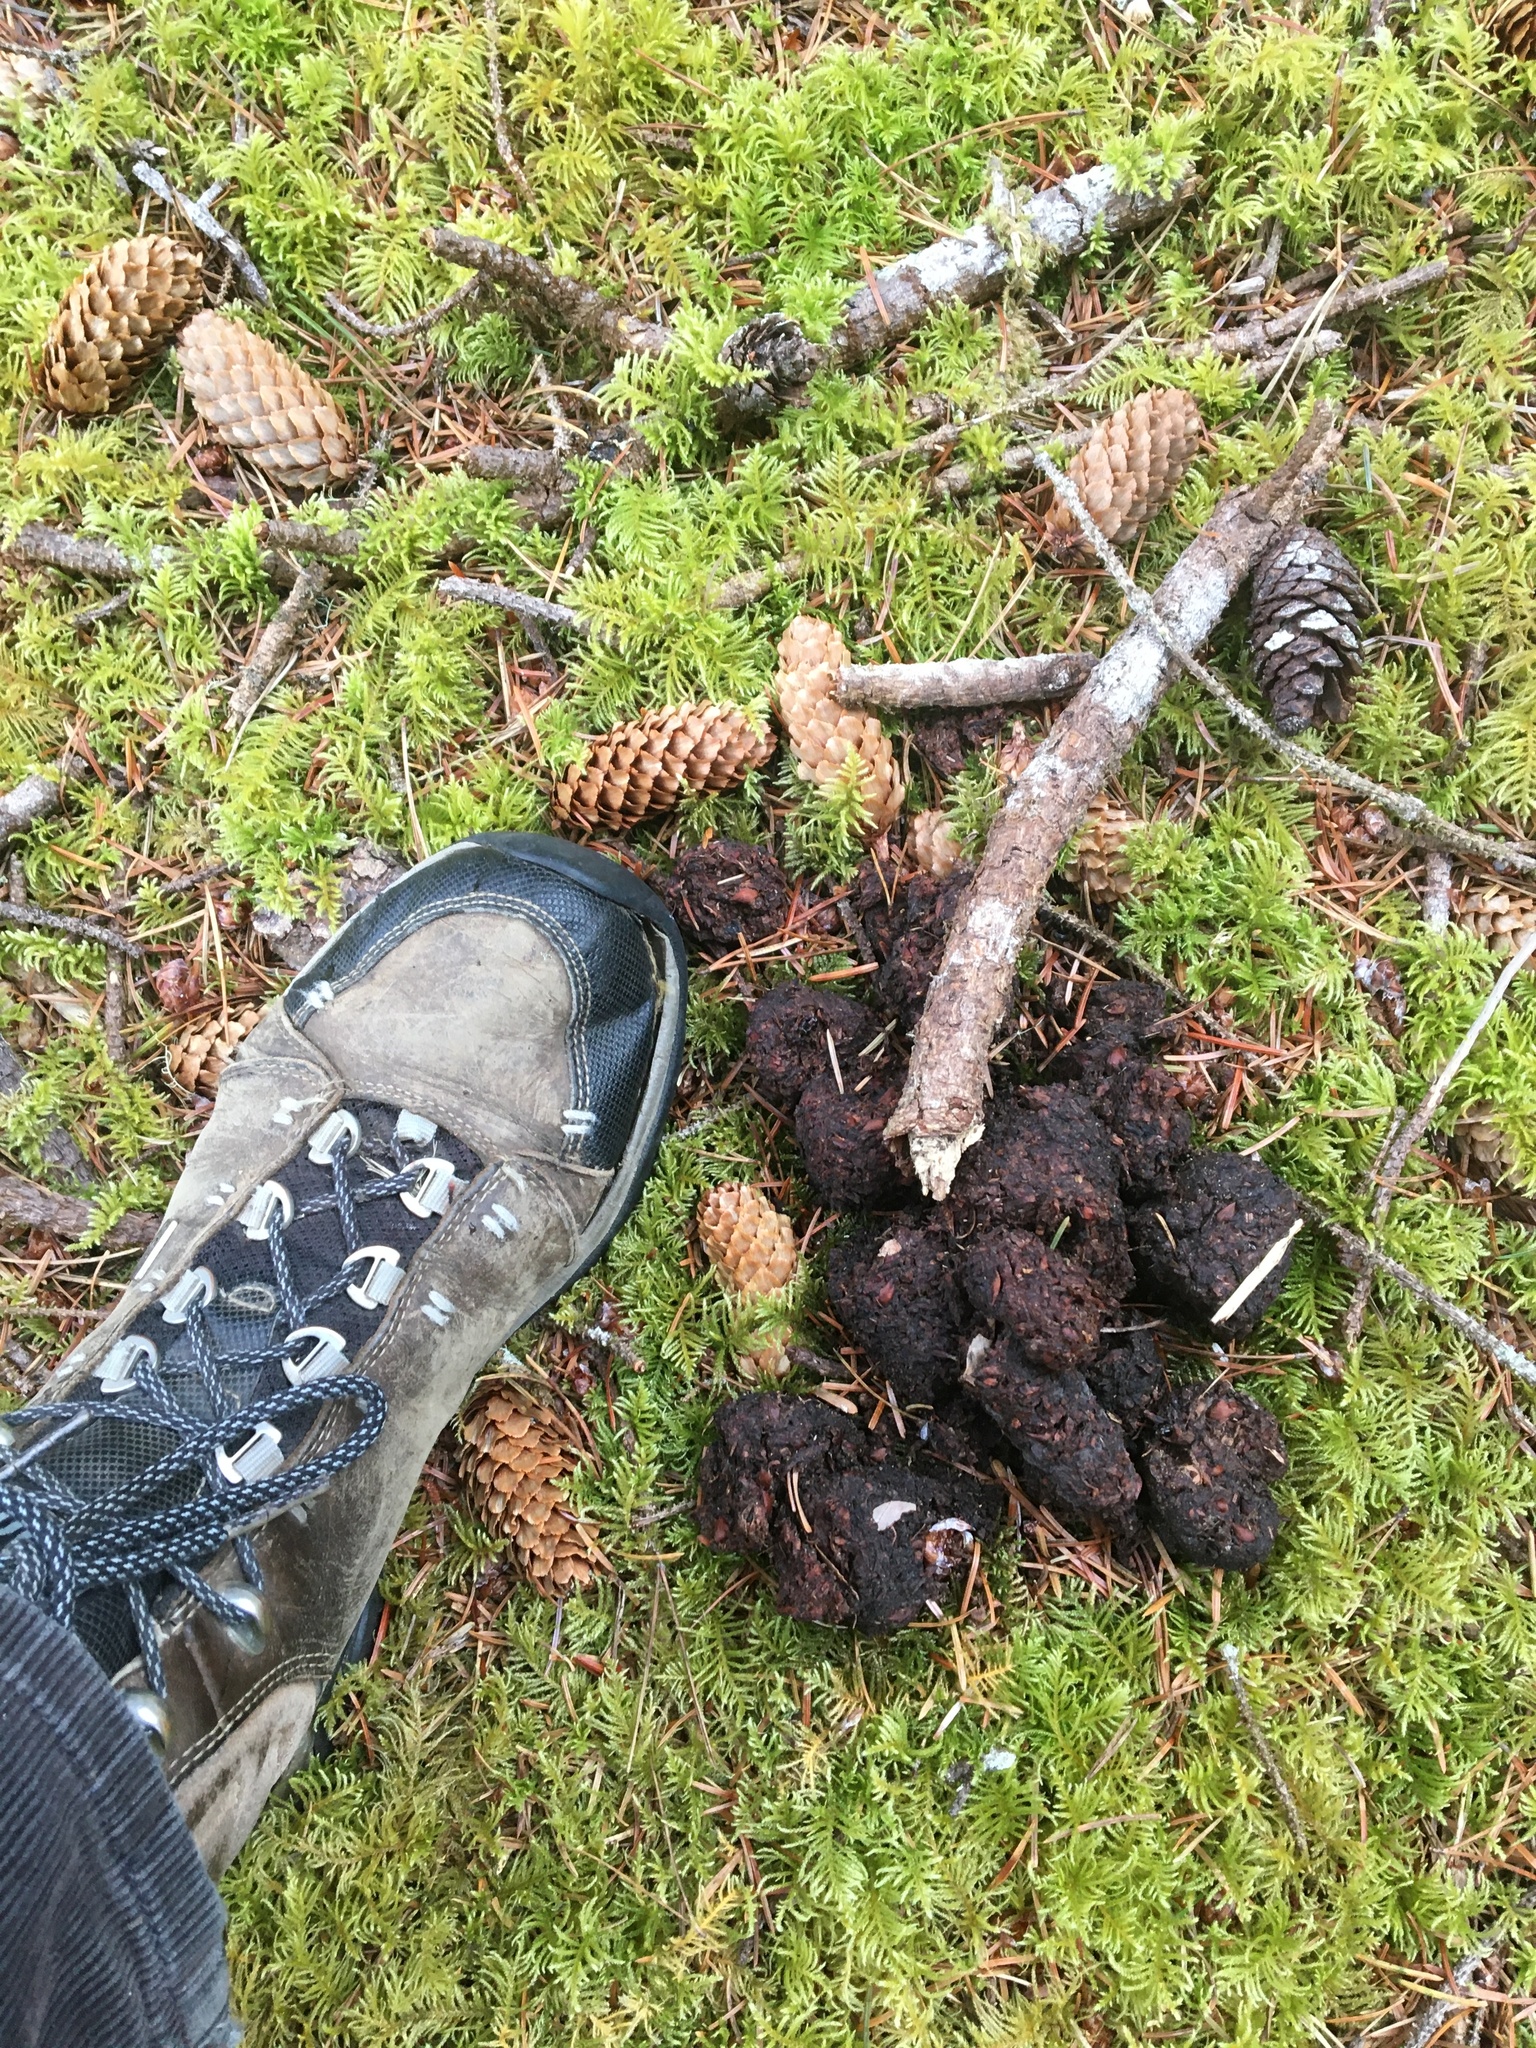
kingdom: Animalia
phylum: Chordata
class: Mammalia
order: Carnivora
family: Ursidae
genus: Ursus
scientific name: Ursus americanus
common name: American black bear
